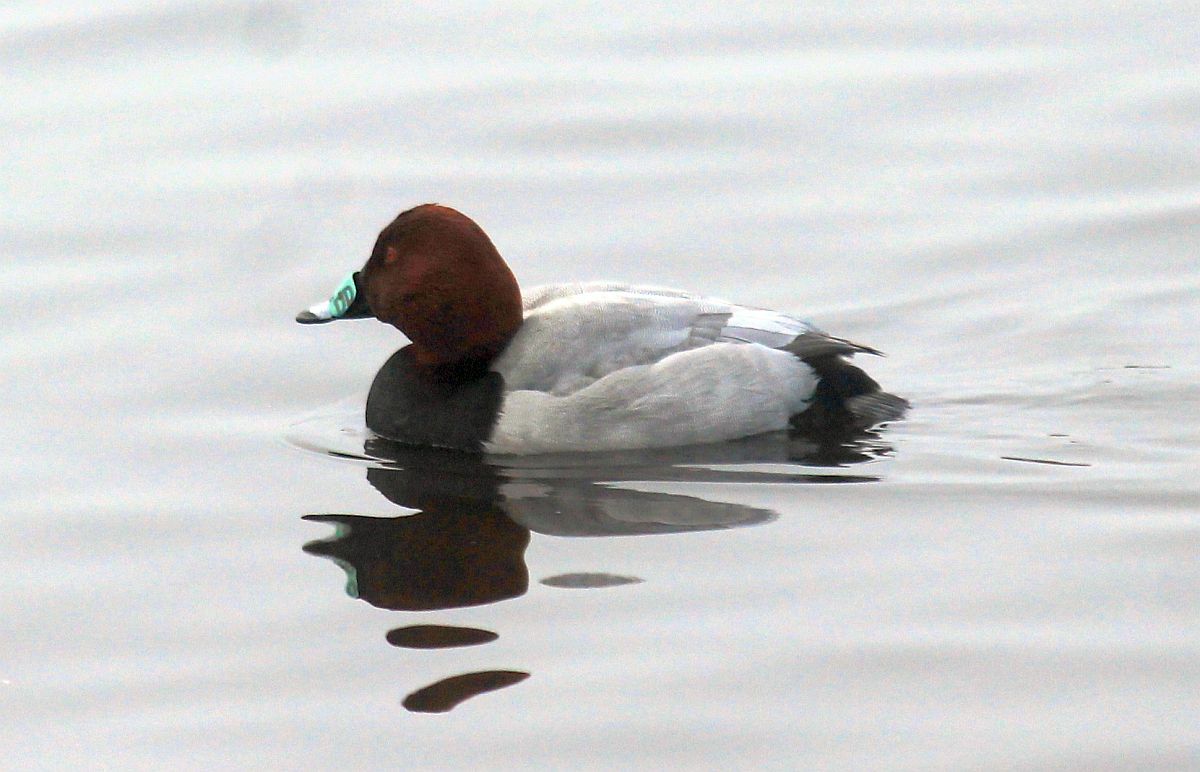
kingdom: Animalia
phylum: Chordata
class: Aves
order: Anseriformes
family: Anatidae
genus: Aythya
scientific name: Aythya ferina
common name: Common pochard
